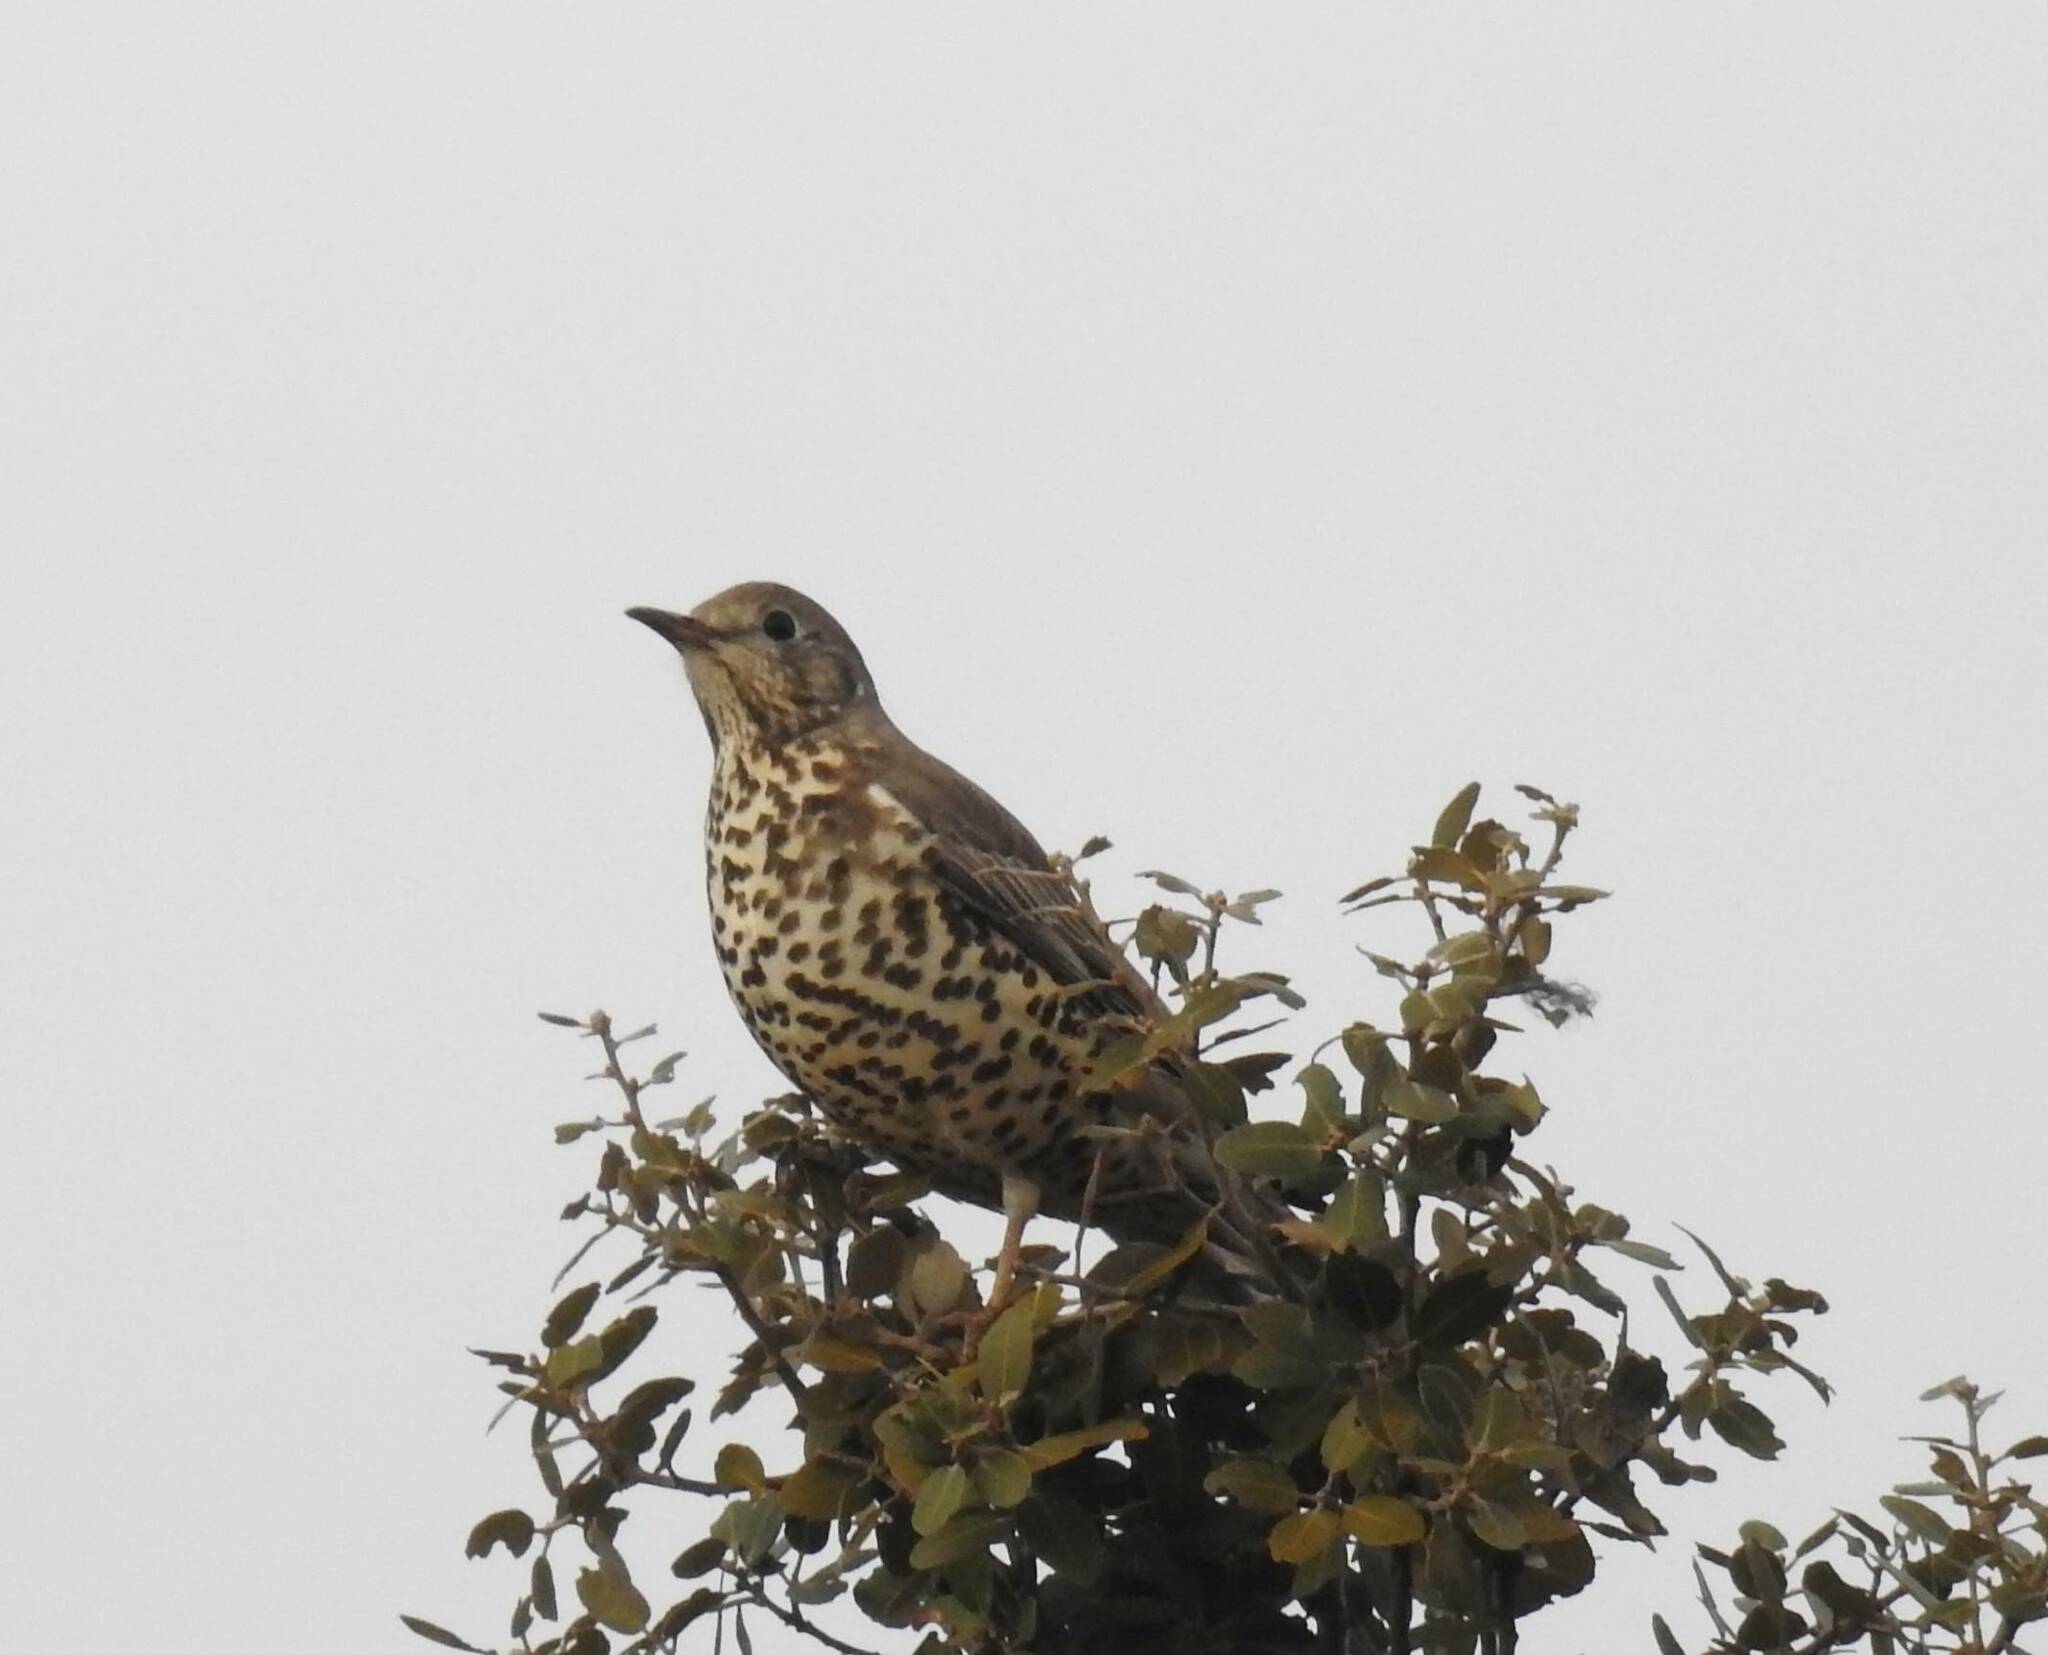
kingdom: Animalia
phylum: Chordata
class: Aves
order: Passeriformes
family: Turdidae
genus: Turdus
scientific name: Turdus viscivorus
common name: Mistle thrush
